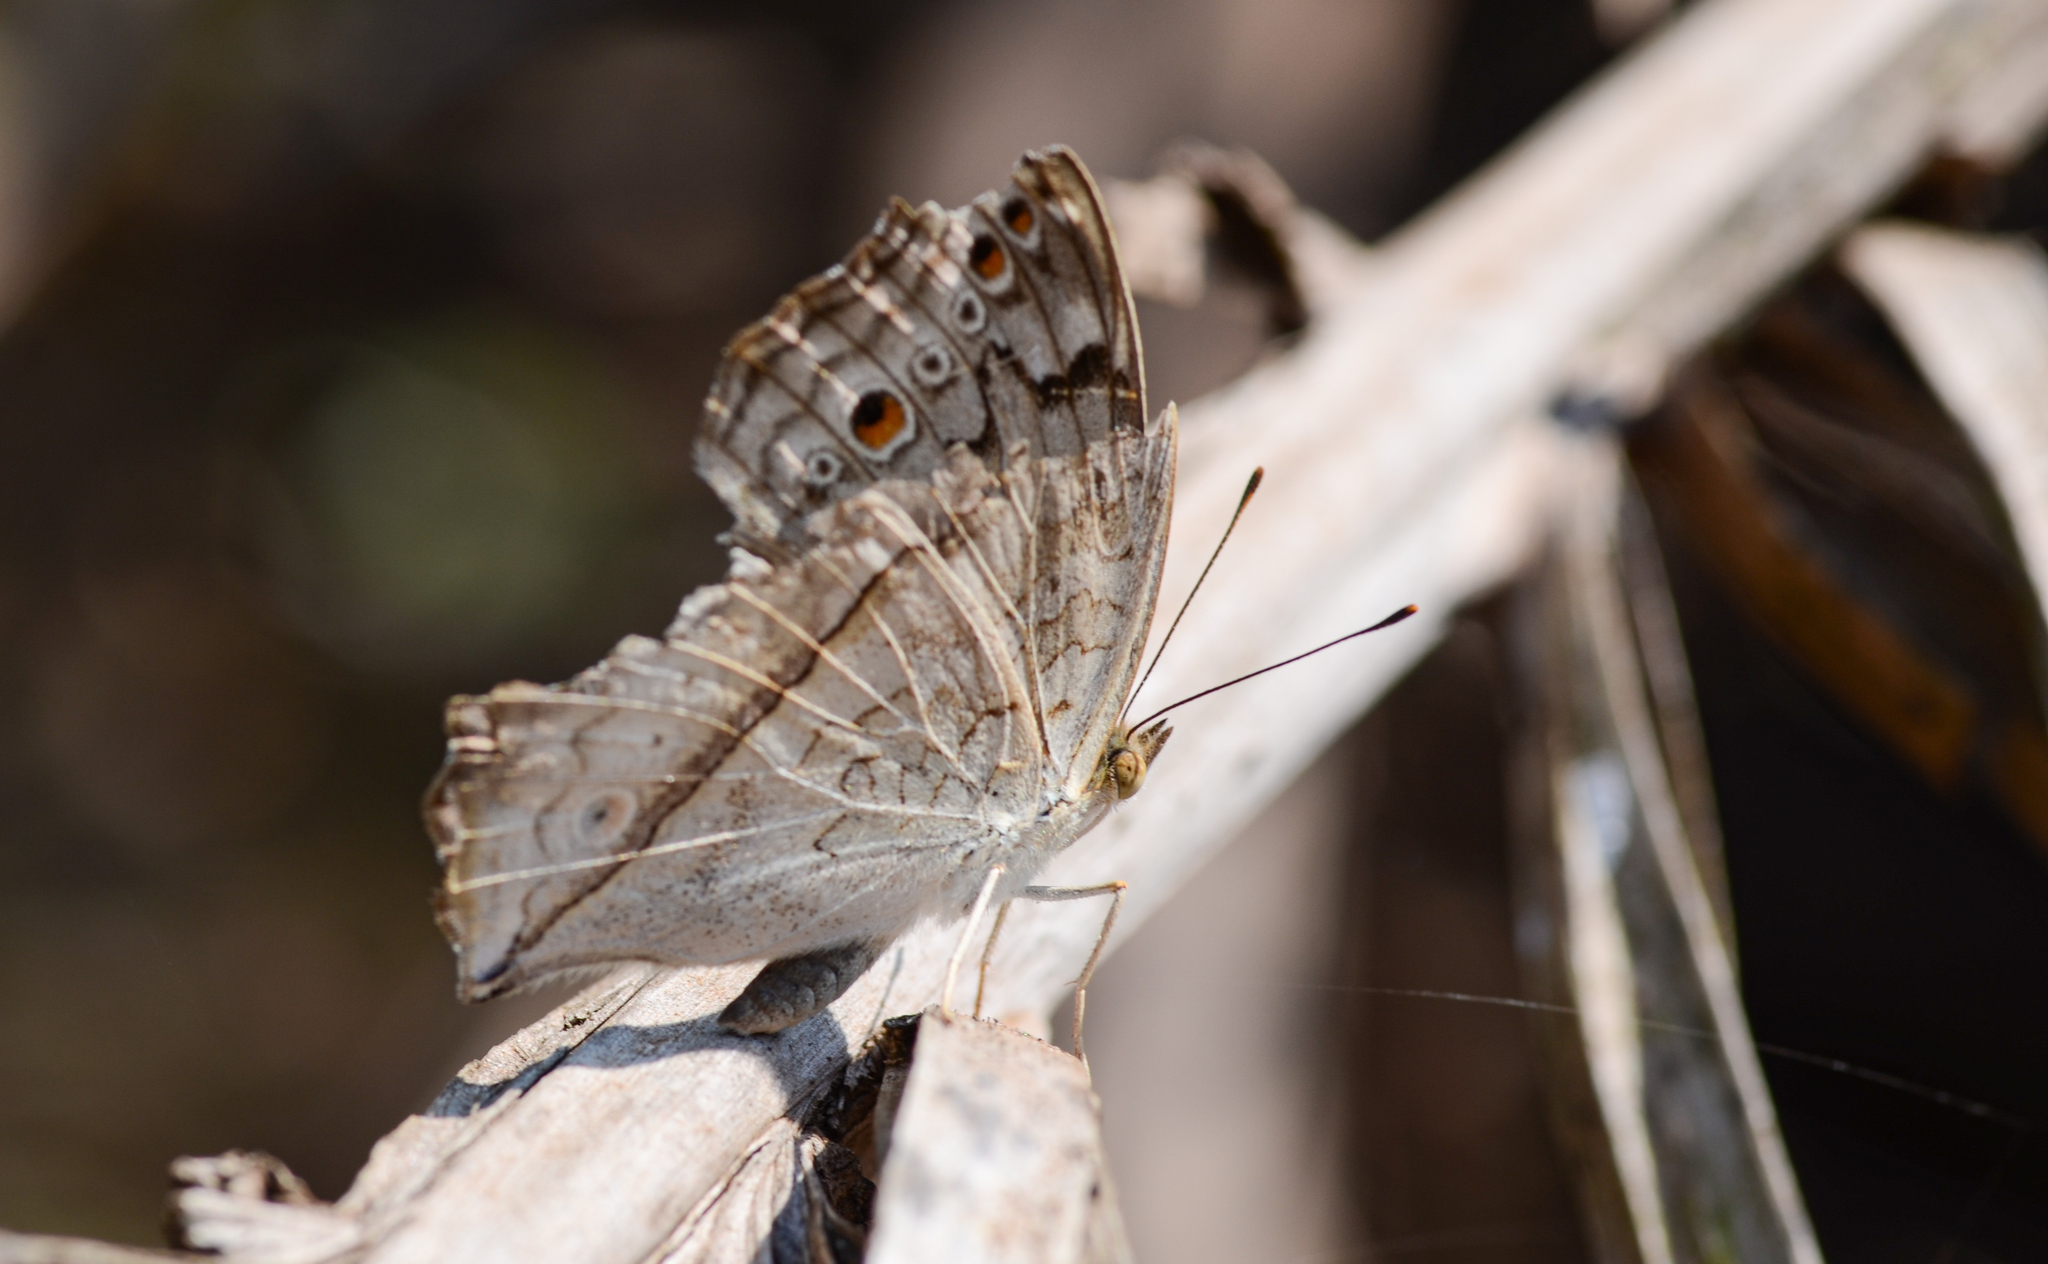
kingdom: Animalia
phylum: Arthropoda
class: Insecta
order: Lepidoptera
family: Nymphalidae
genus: Junonia
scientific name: Junonia atlites
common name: Grey pansy
